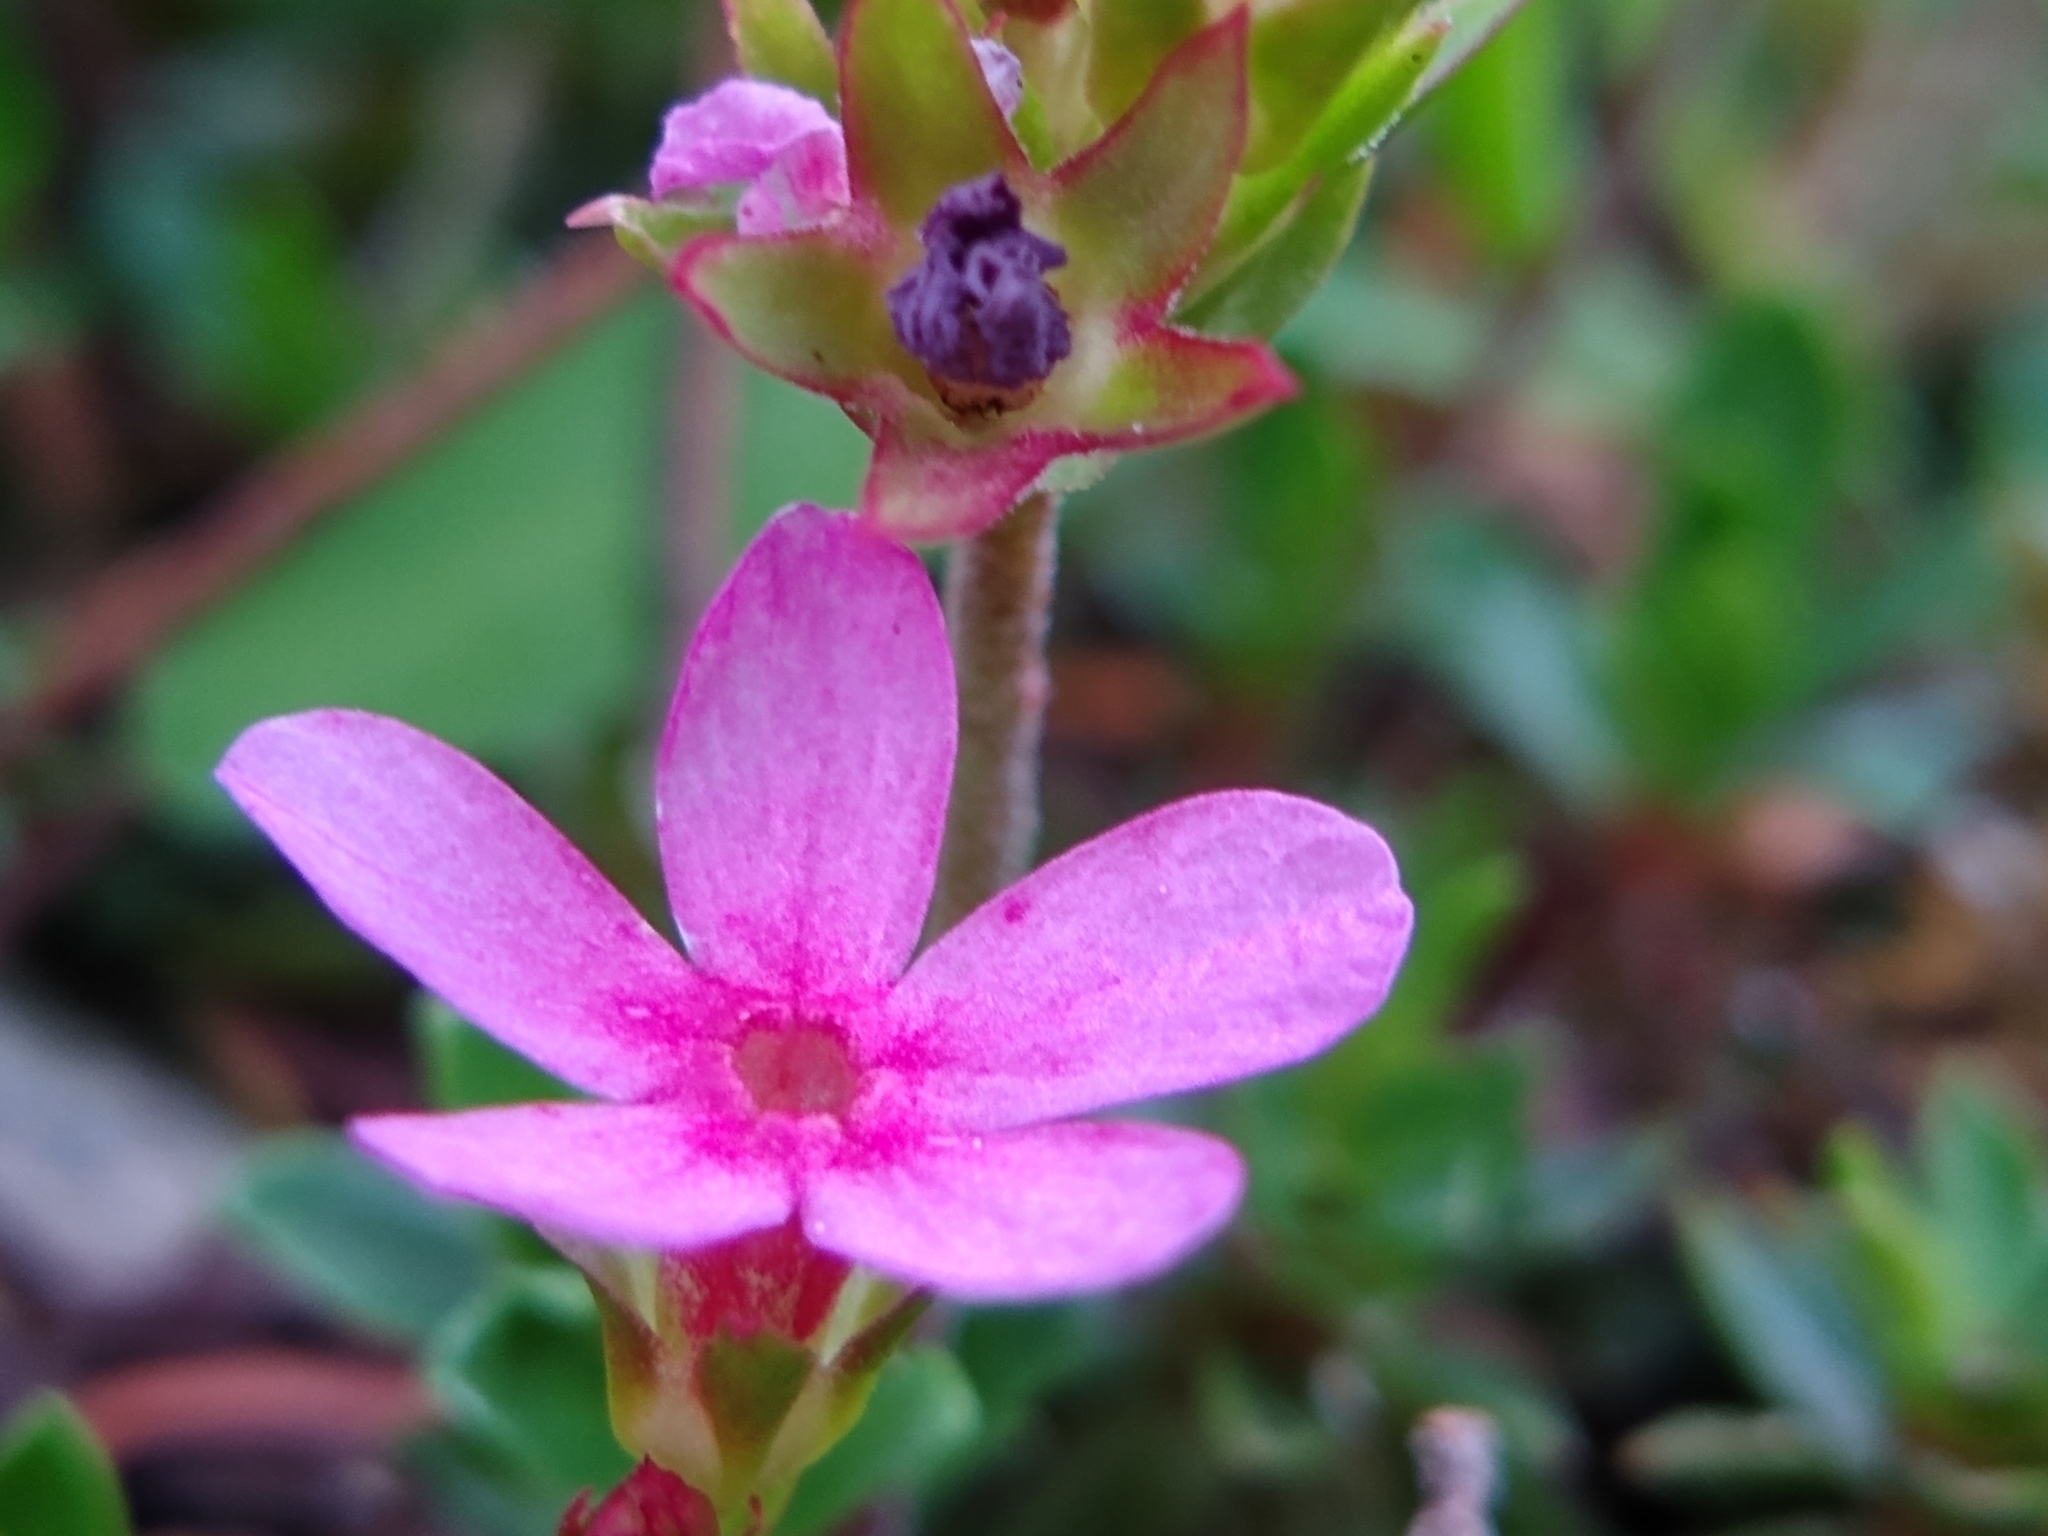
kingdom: Plantae
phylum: Tracheophyta
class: Magnoliopsida
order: Ericales
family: Primulaceae
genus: Androsace
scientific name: Androsace laevigata
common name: Cliff dwarf-primrose
